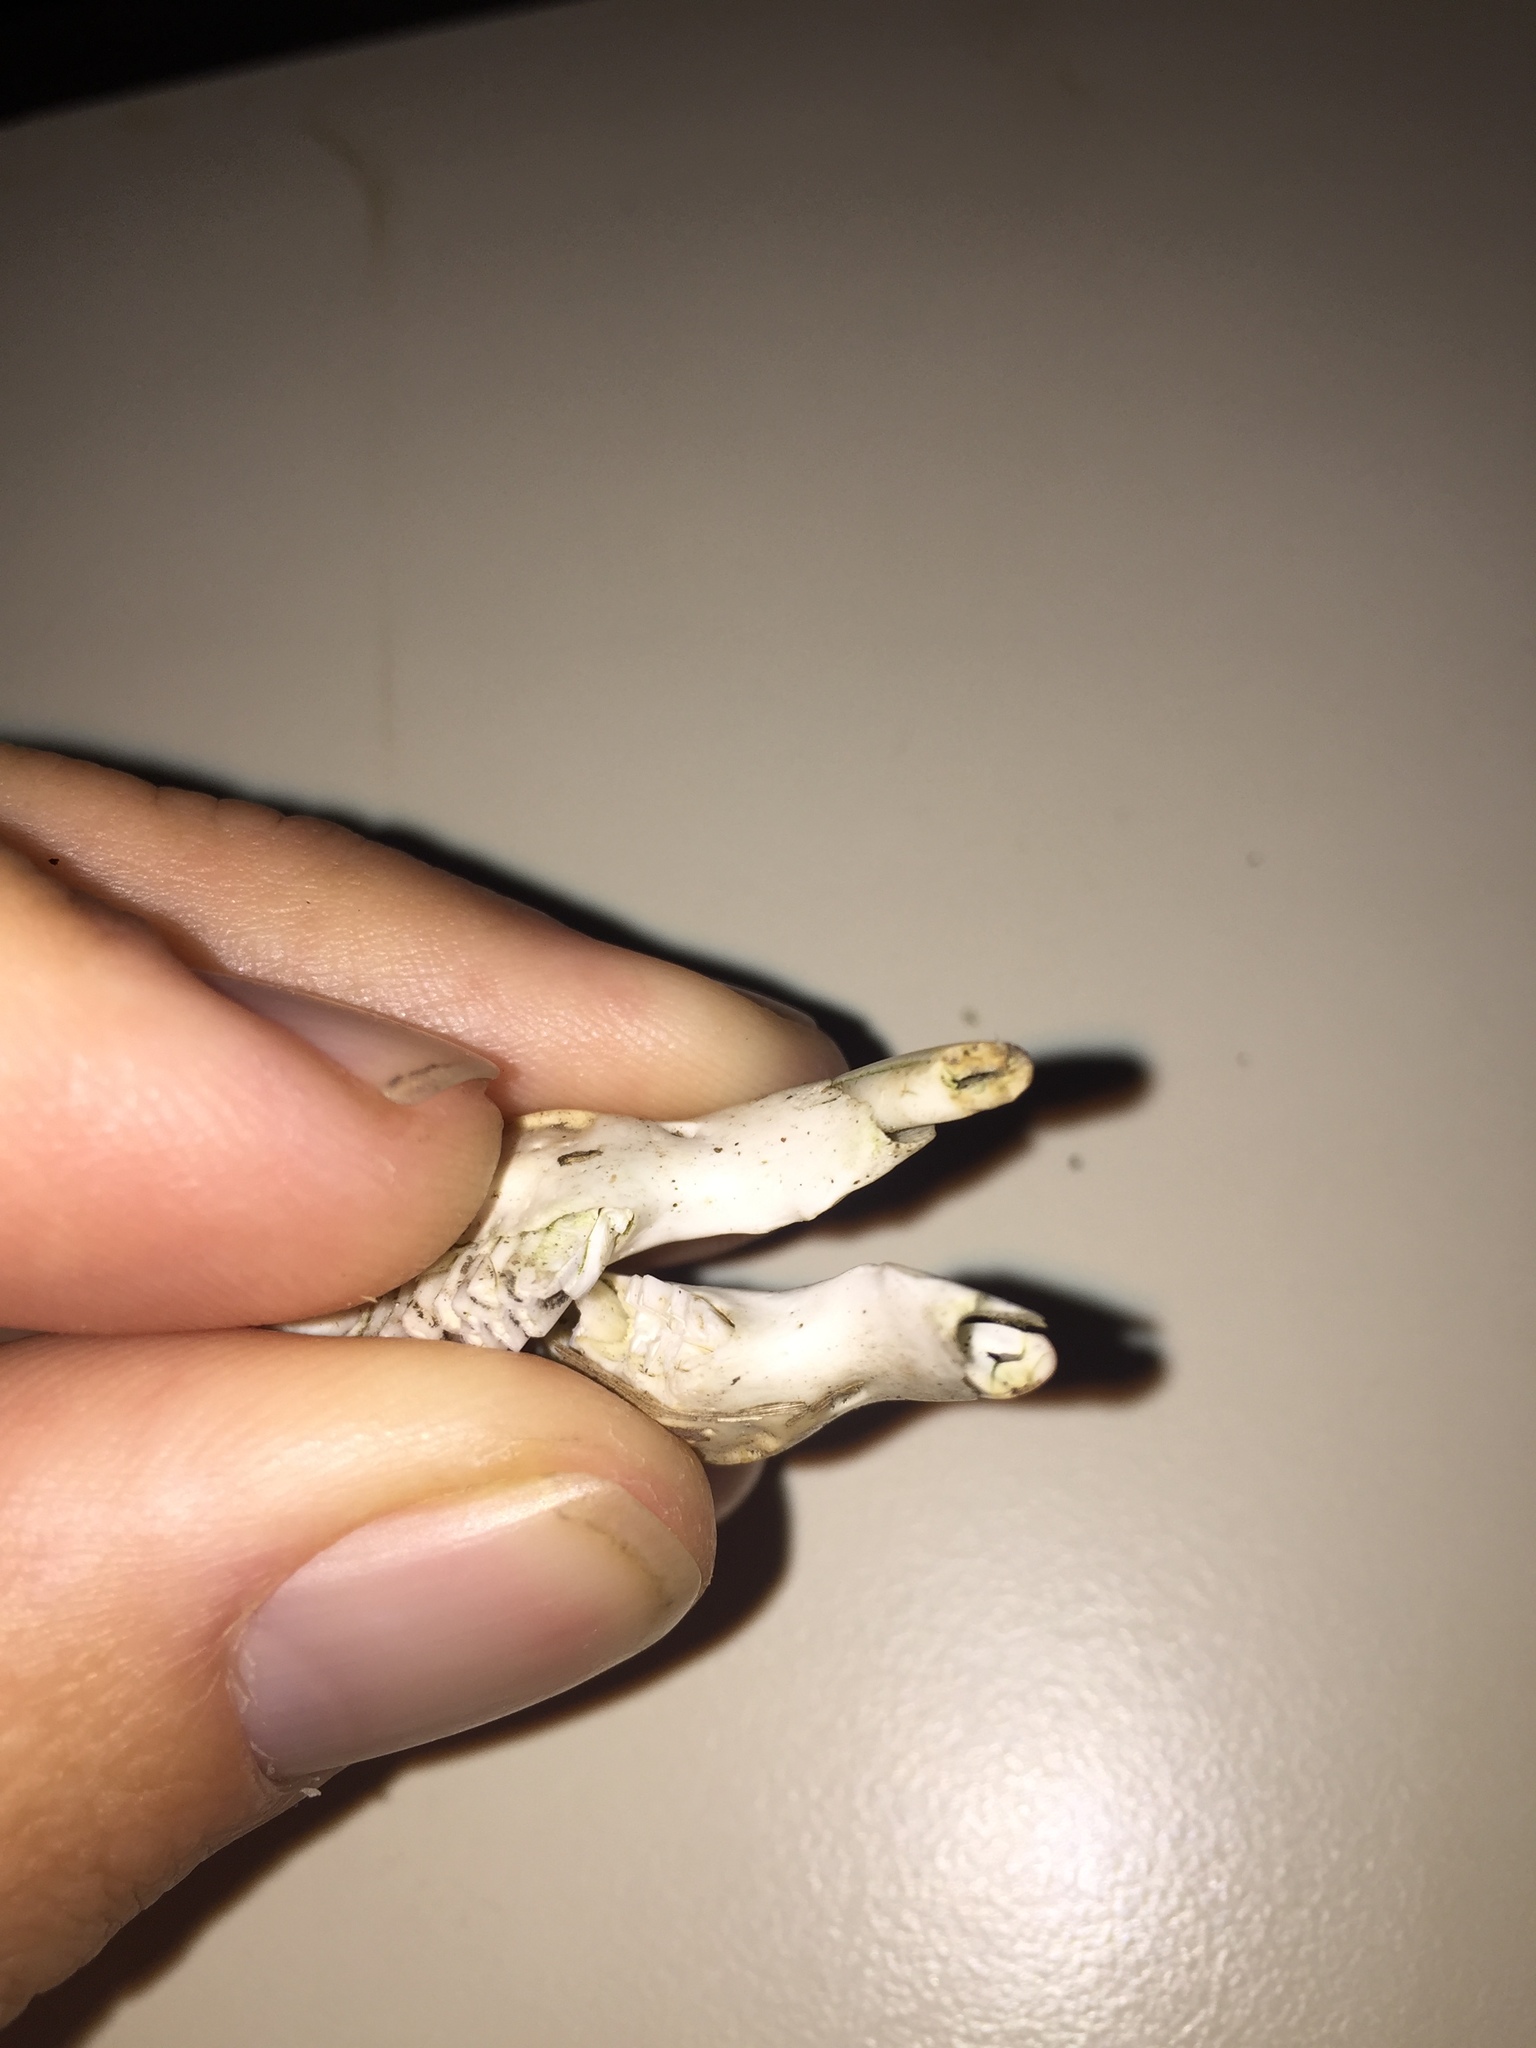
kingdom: Animalia
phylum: Chordata
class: Mammalia
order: Rodentia
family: Cricetidae
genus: Ondatra
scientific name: Ondatra zibethicus
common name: Muskrat
